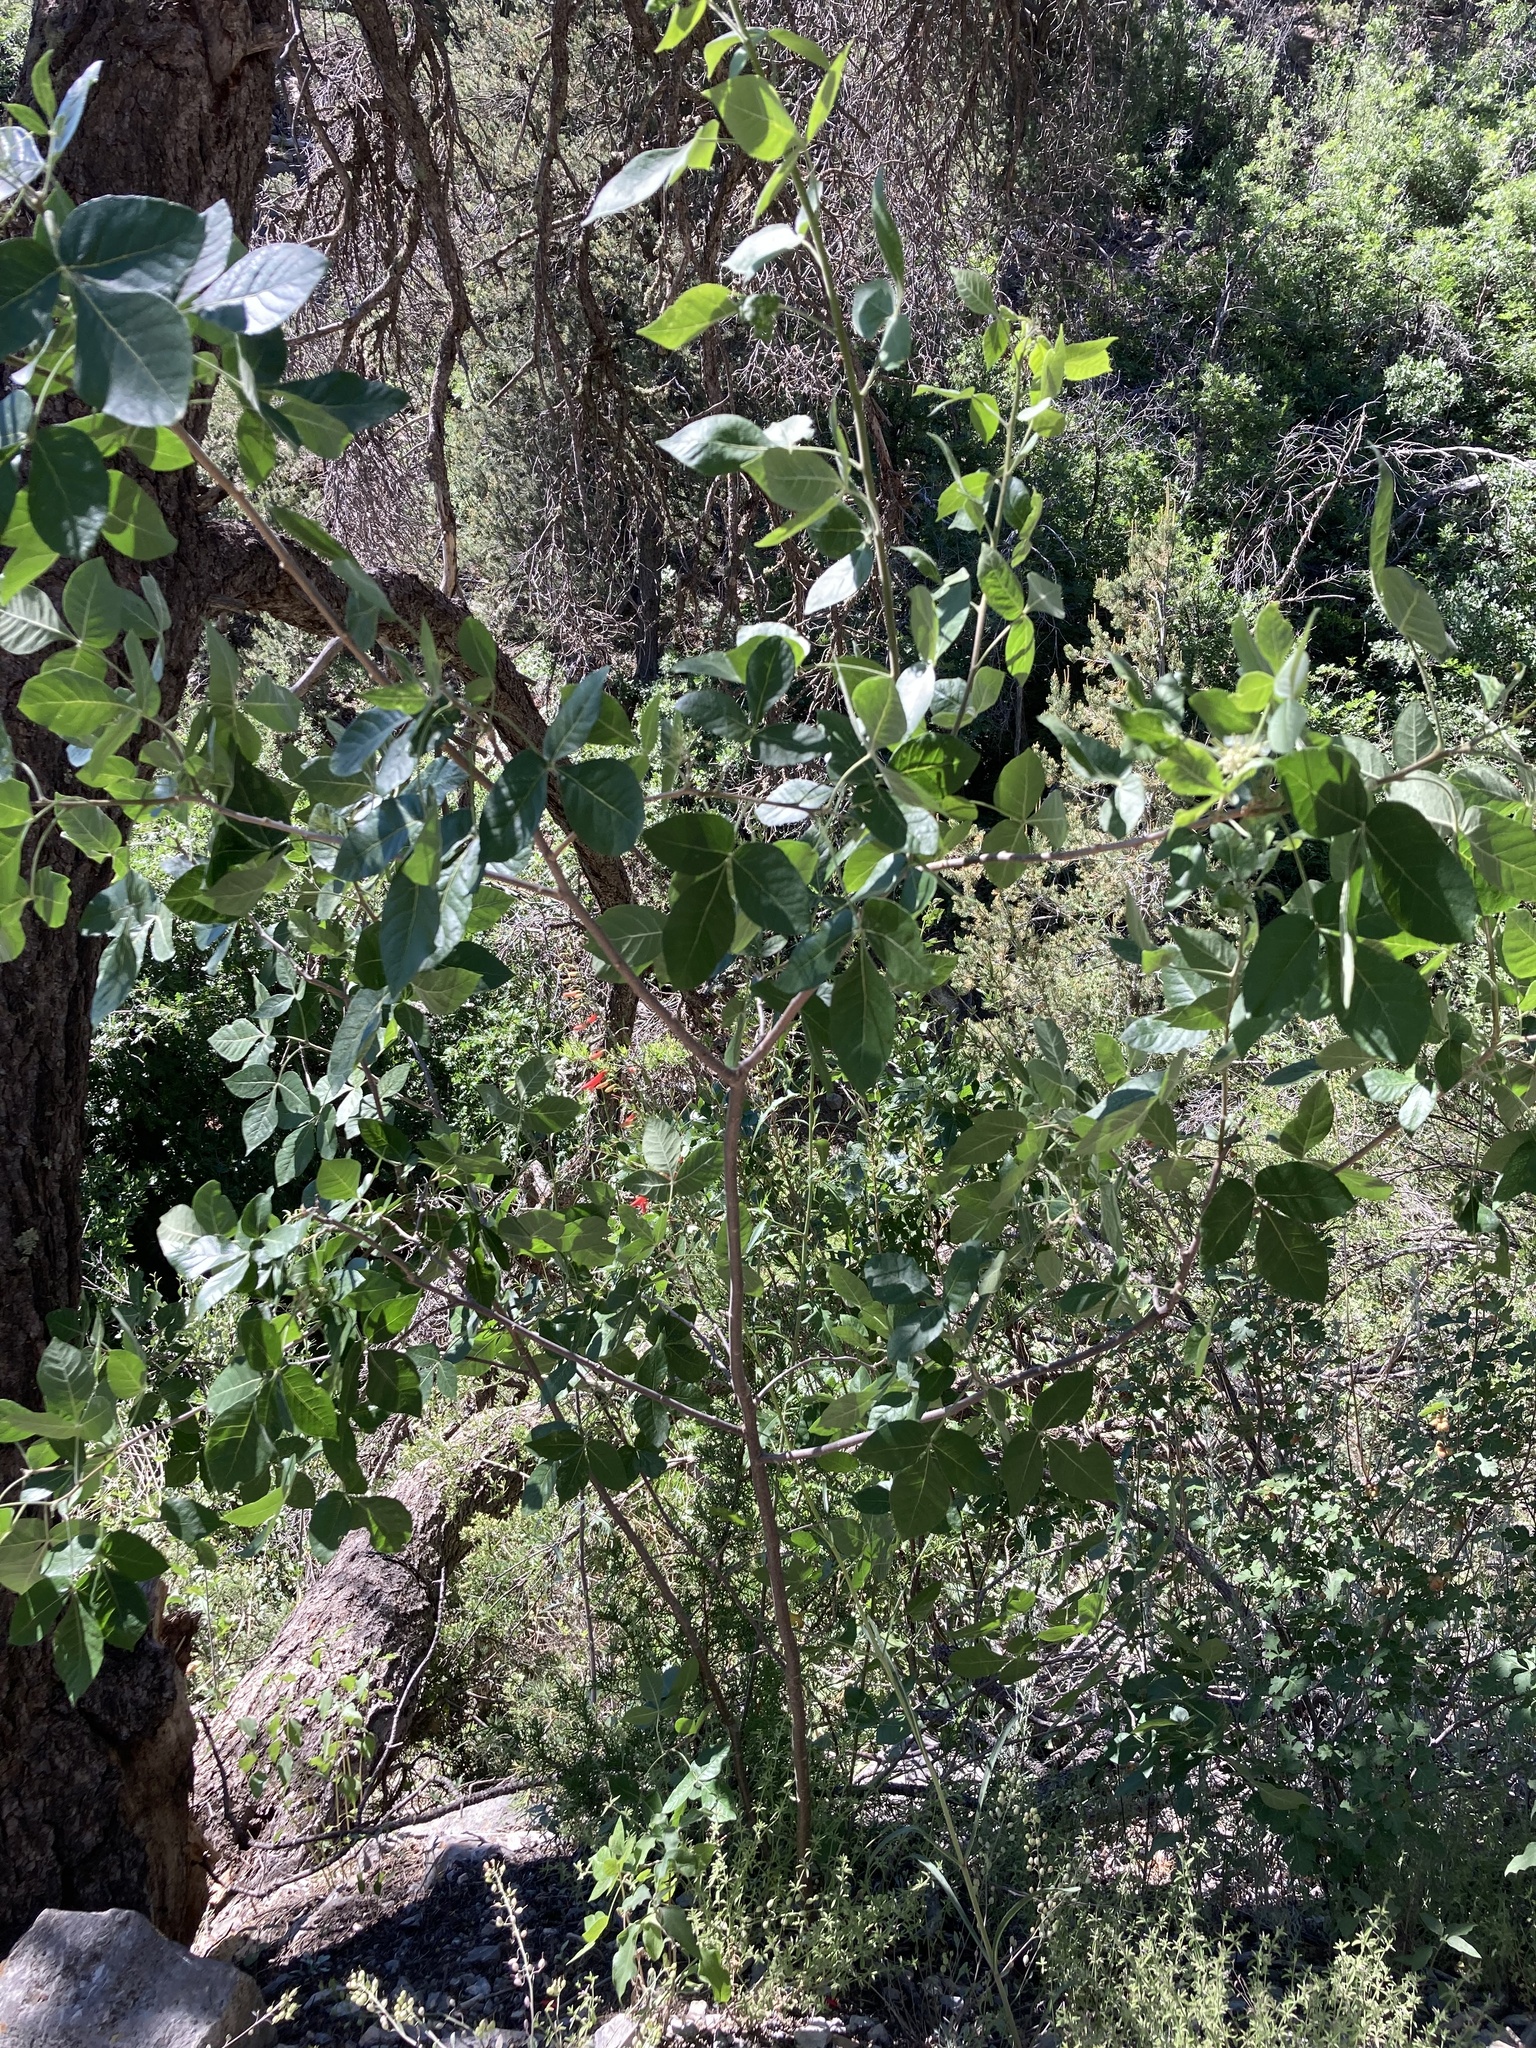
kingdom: Plantae
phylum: Tracheophyta
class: Magnoliopsida
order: Sapindales
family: Rutaceae
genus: Ptelea
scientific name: Ptelea trifoliata
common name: Common hop-tree
